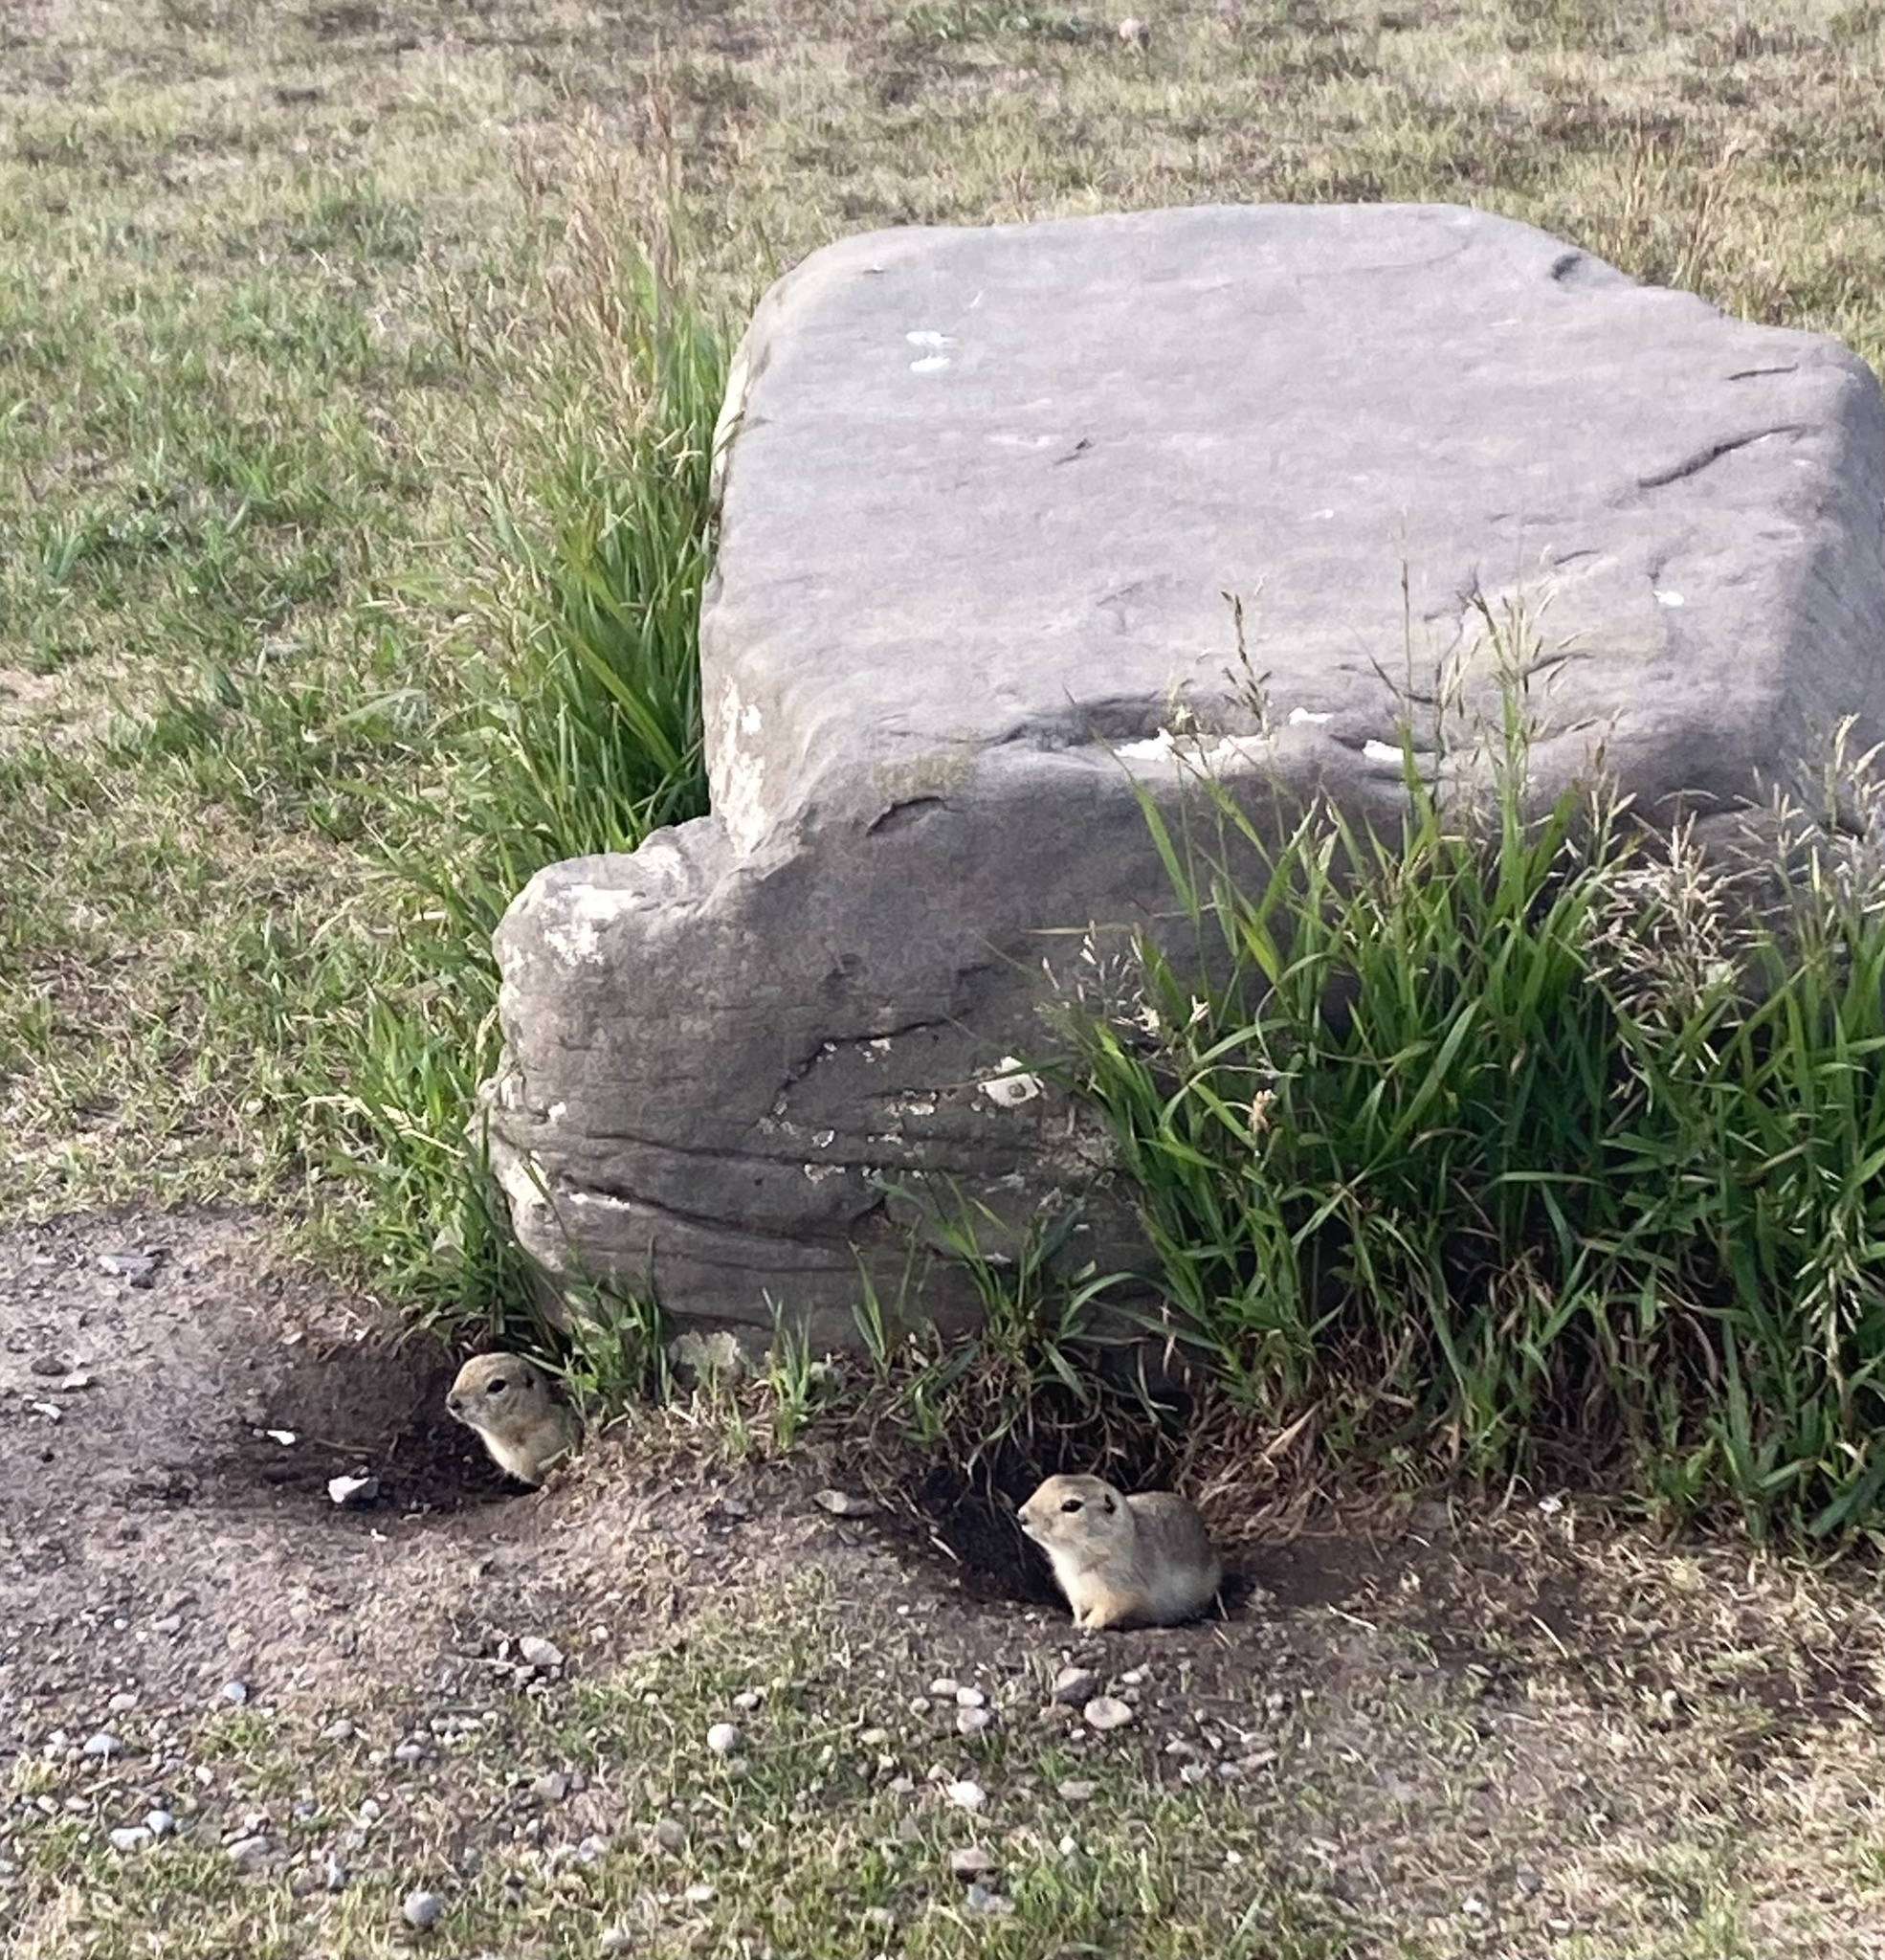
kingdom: Animalia
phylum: Chordata
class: Mammalia
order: Rodentia
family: Sciuridae
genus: Urocitellus
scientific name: Urocitellus richardsonii
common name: Richardson's ground squirrel
